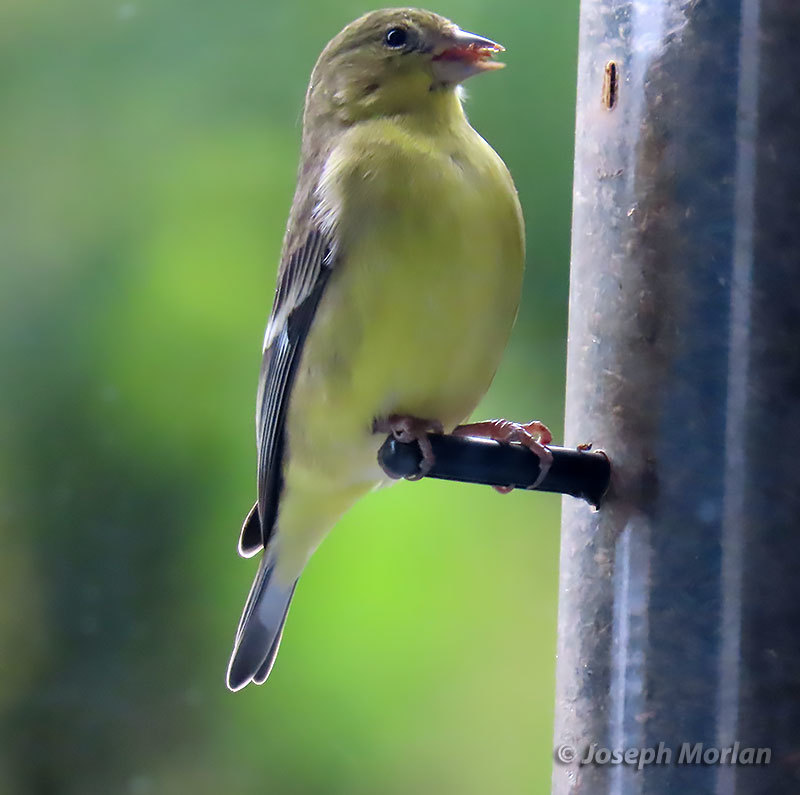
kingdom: Animalia
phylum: Chordata
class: Aves
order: Passeriformes
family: Fringillidae
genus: Spinus
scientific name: Spinus psaltria
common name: Lesser goldfinch
